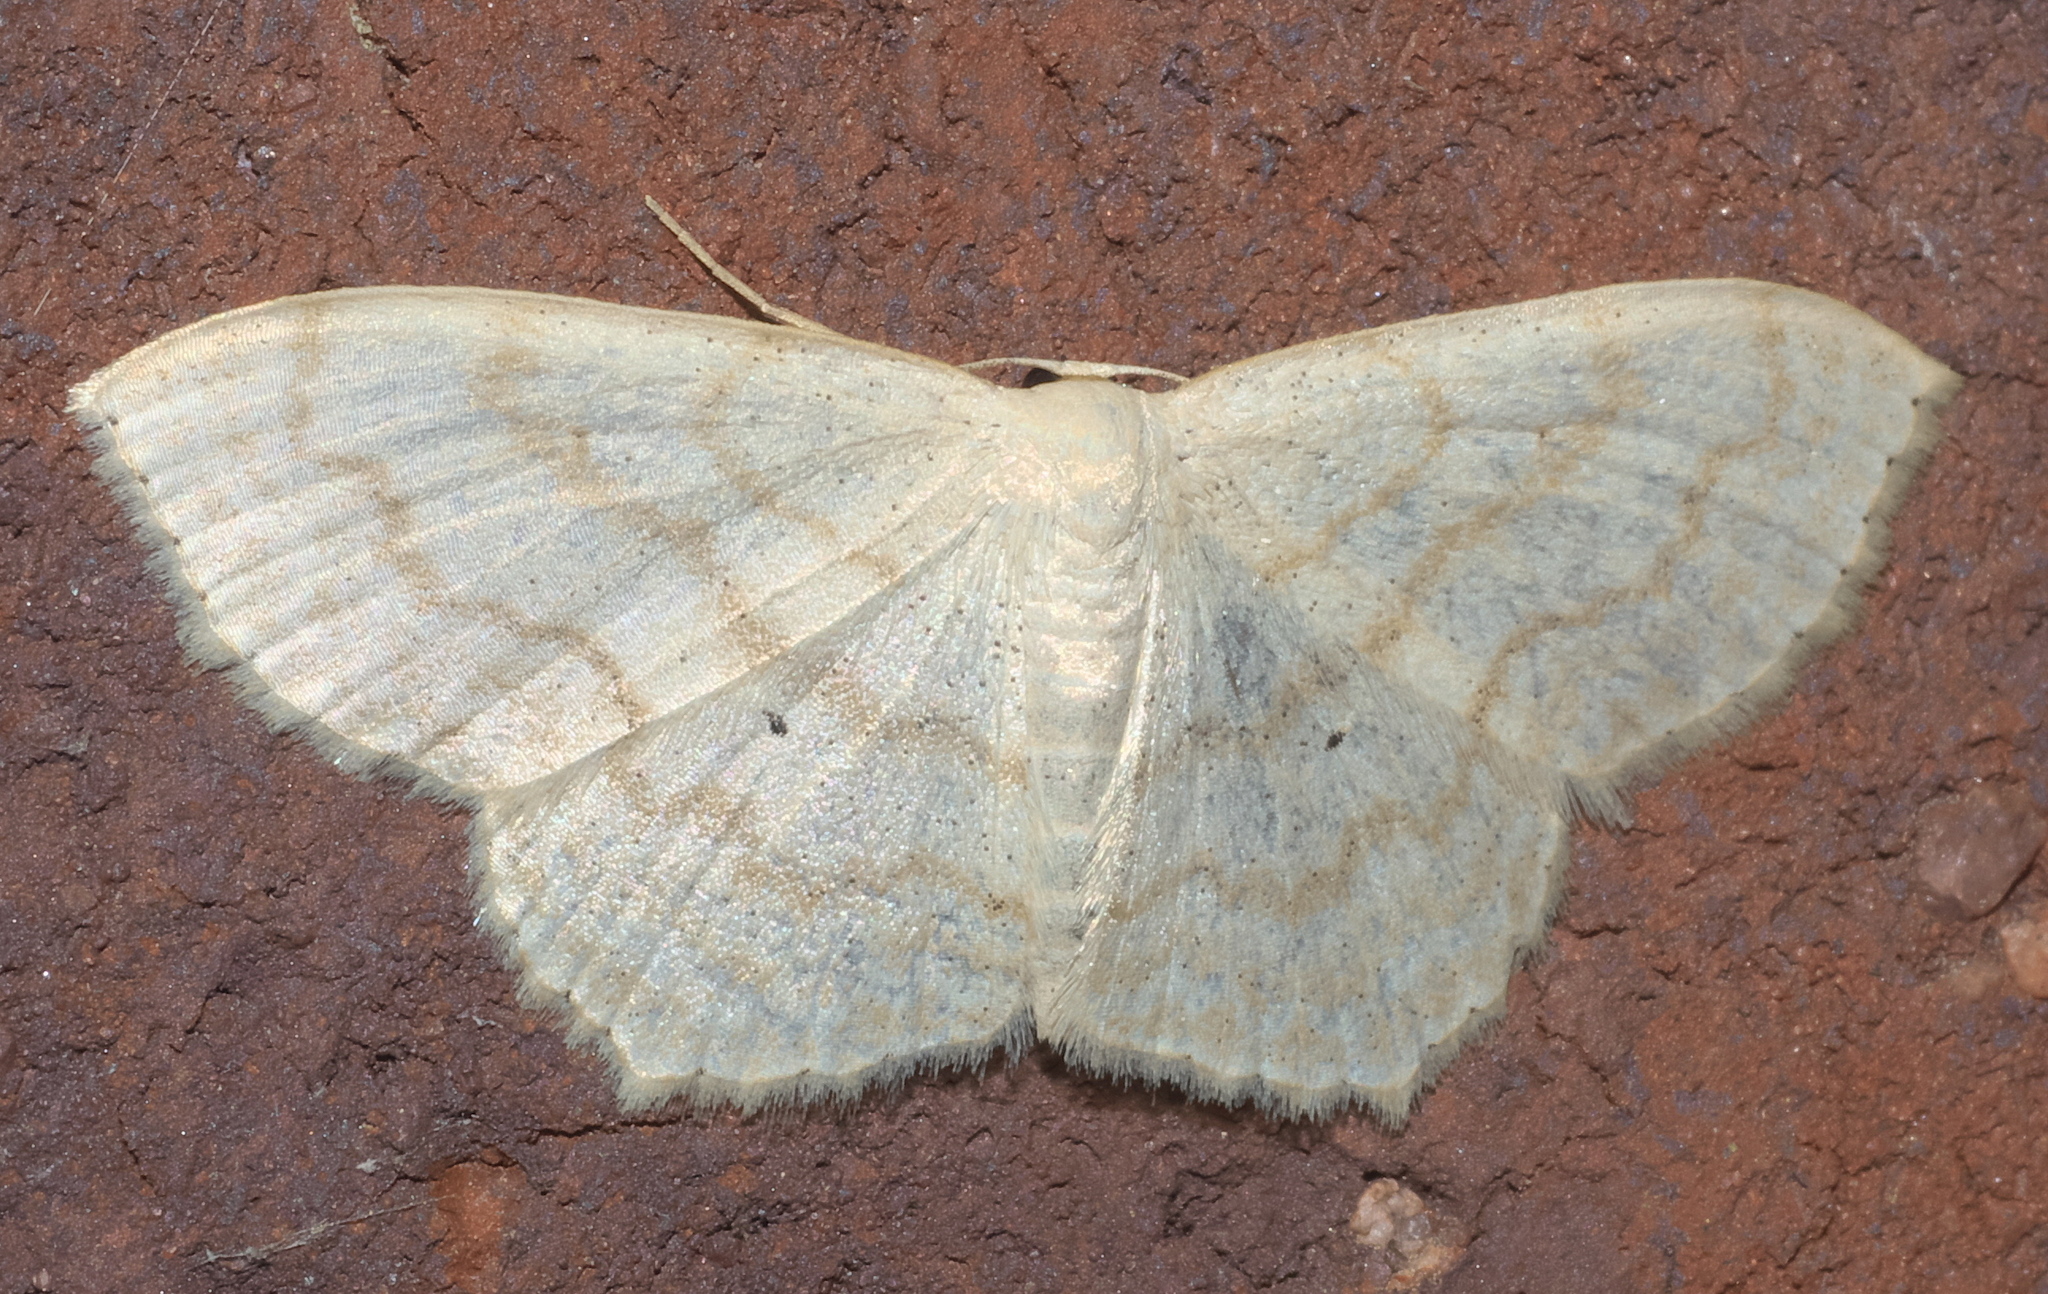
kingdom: Animalia
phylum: Arthropoda
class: Insecta
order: Lepidoptera
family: Geometridae
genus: Scopula
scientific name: Scopula limboundata
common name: Large lace border
